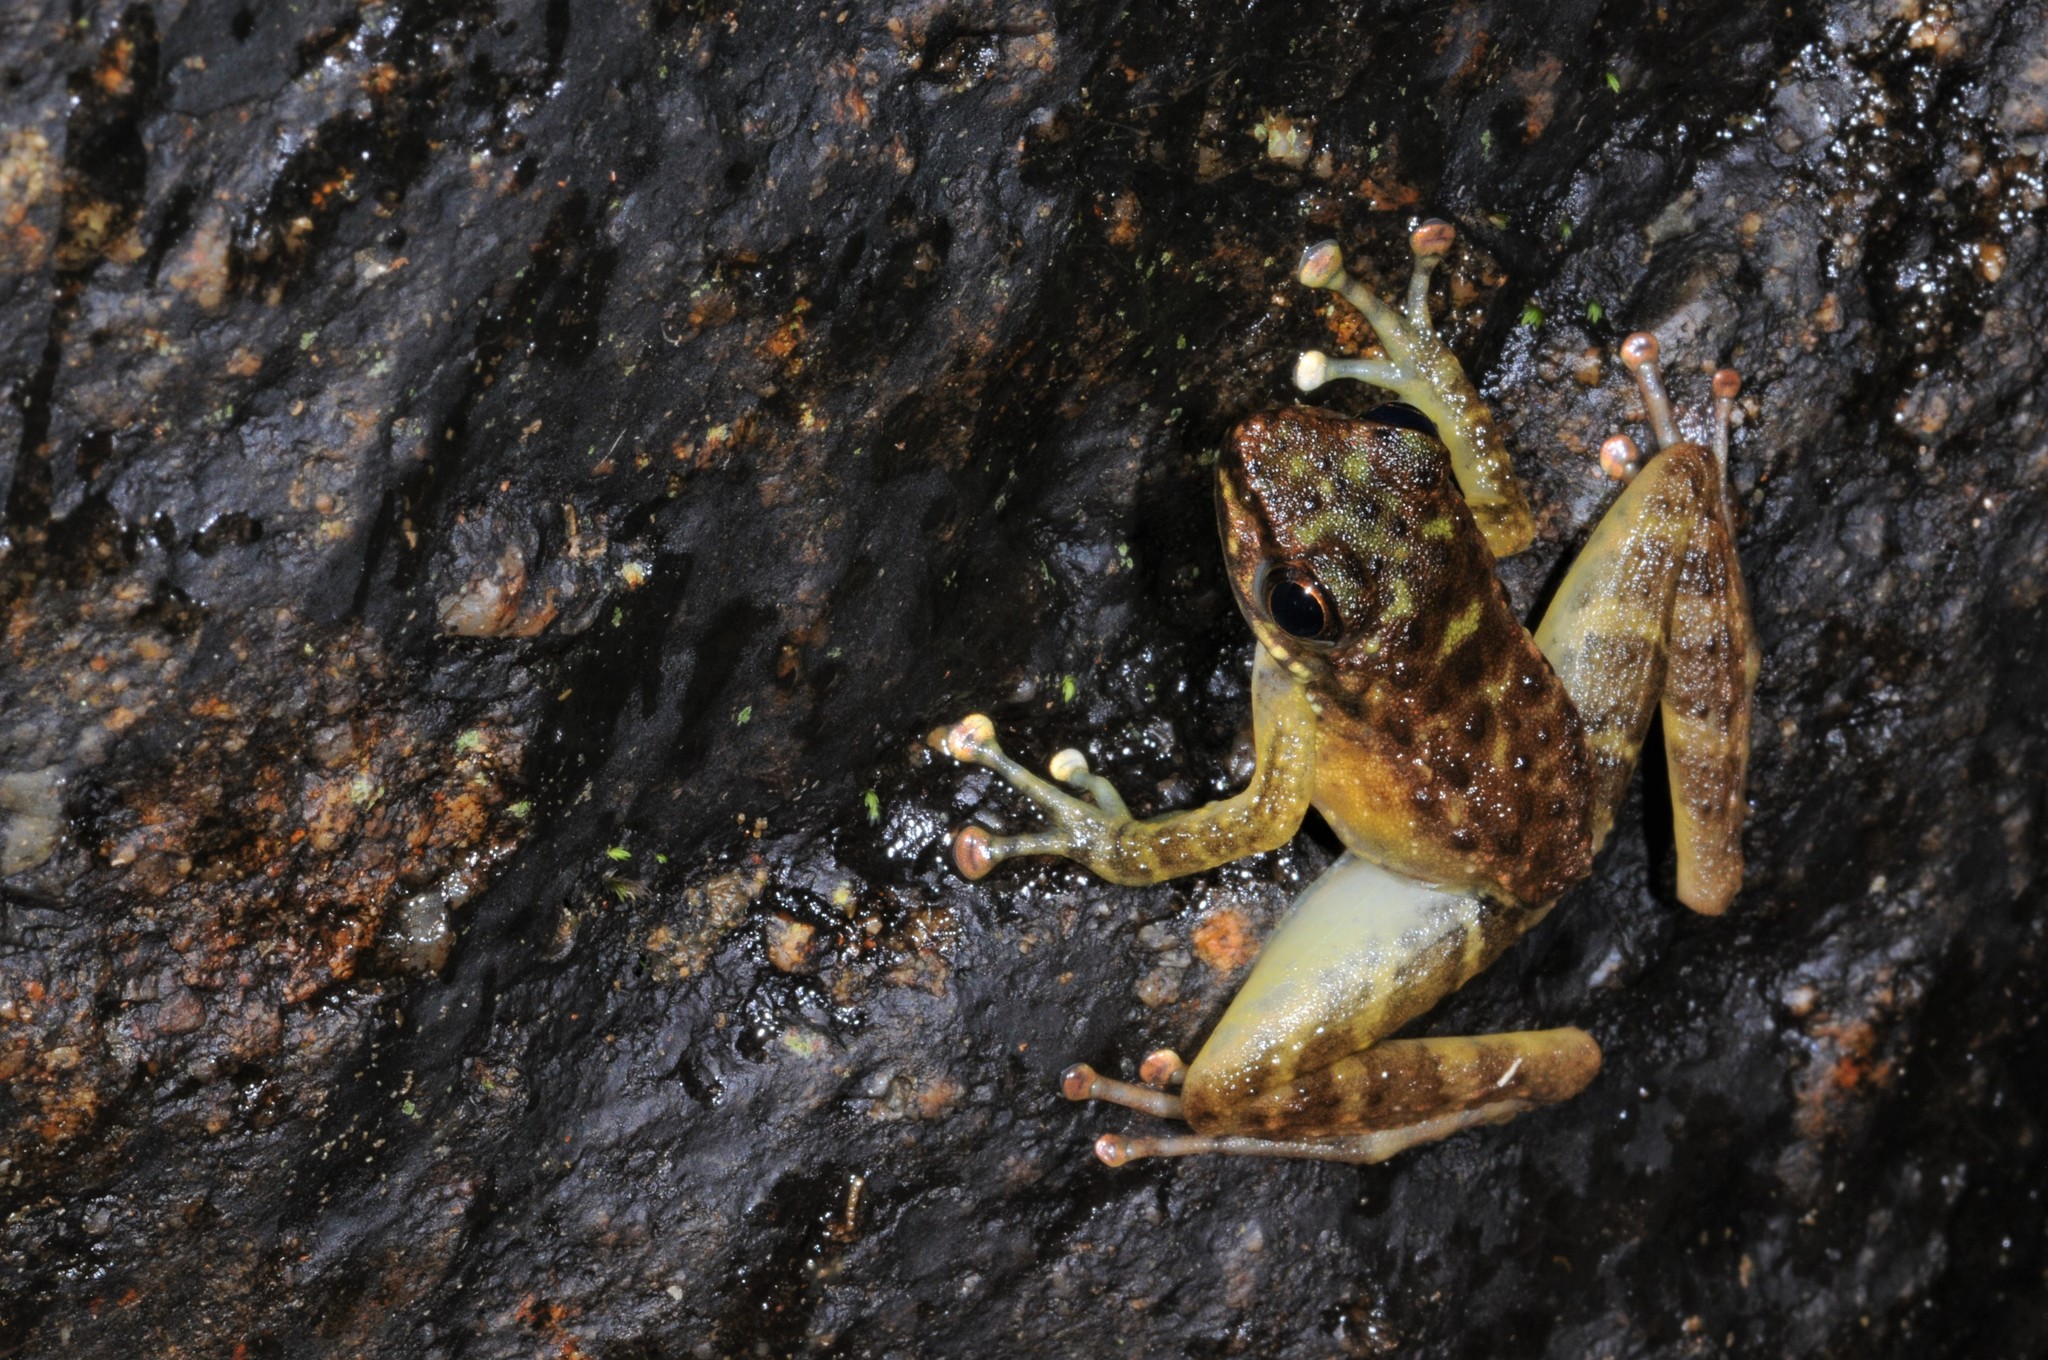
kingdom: Animalia
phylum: Chordata
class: Amphibia
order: Anura
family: Ranidae
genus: Amolops
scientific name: Amolops larutensis
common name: Larut sucker frog/torrent frog/southern pad-discked frog/larut hill cascade frog
